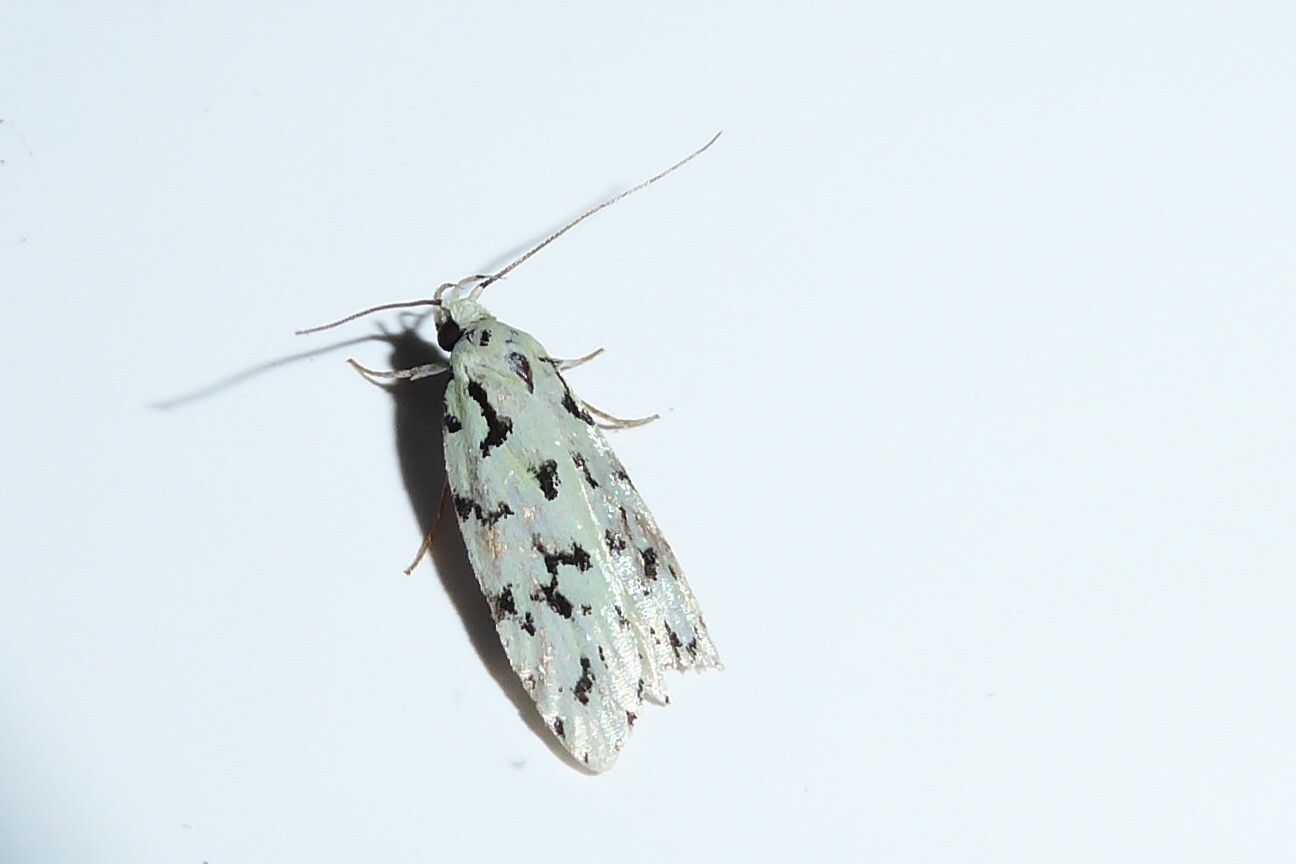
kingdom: Animalia
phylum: Arthropoda
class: Insecta
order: Lepidoptera
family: Oecophoridae
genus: Izatha
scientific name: Izatha huttoni
